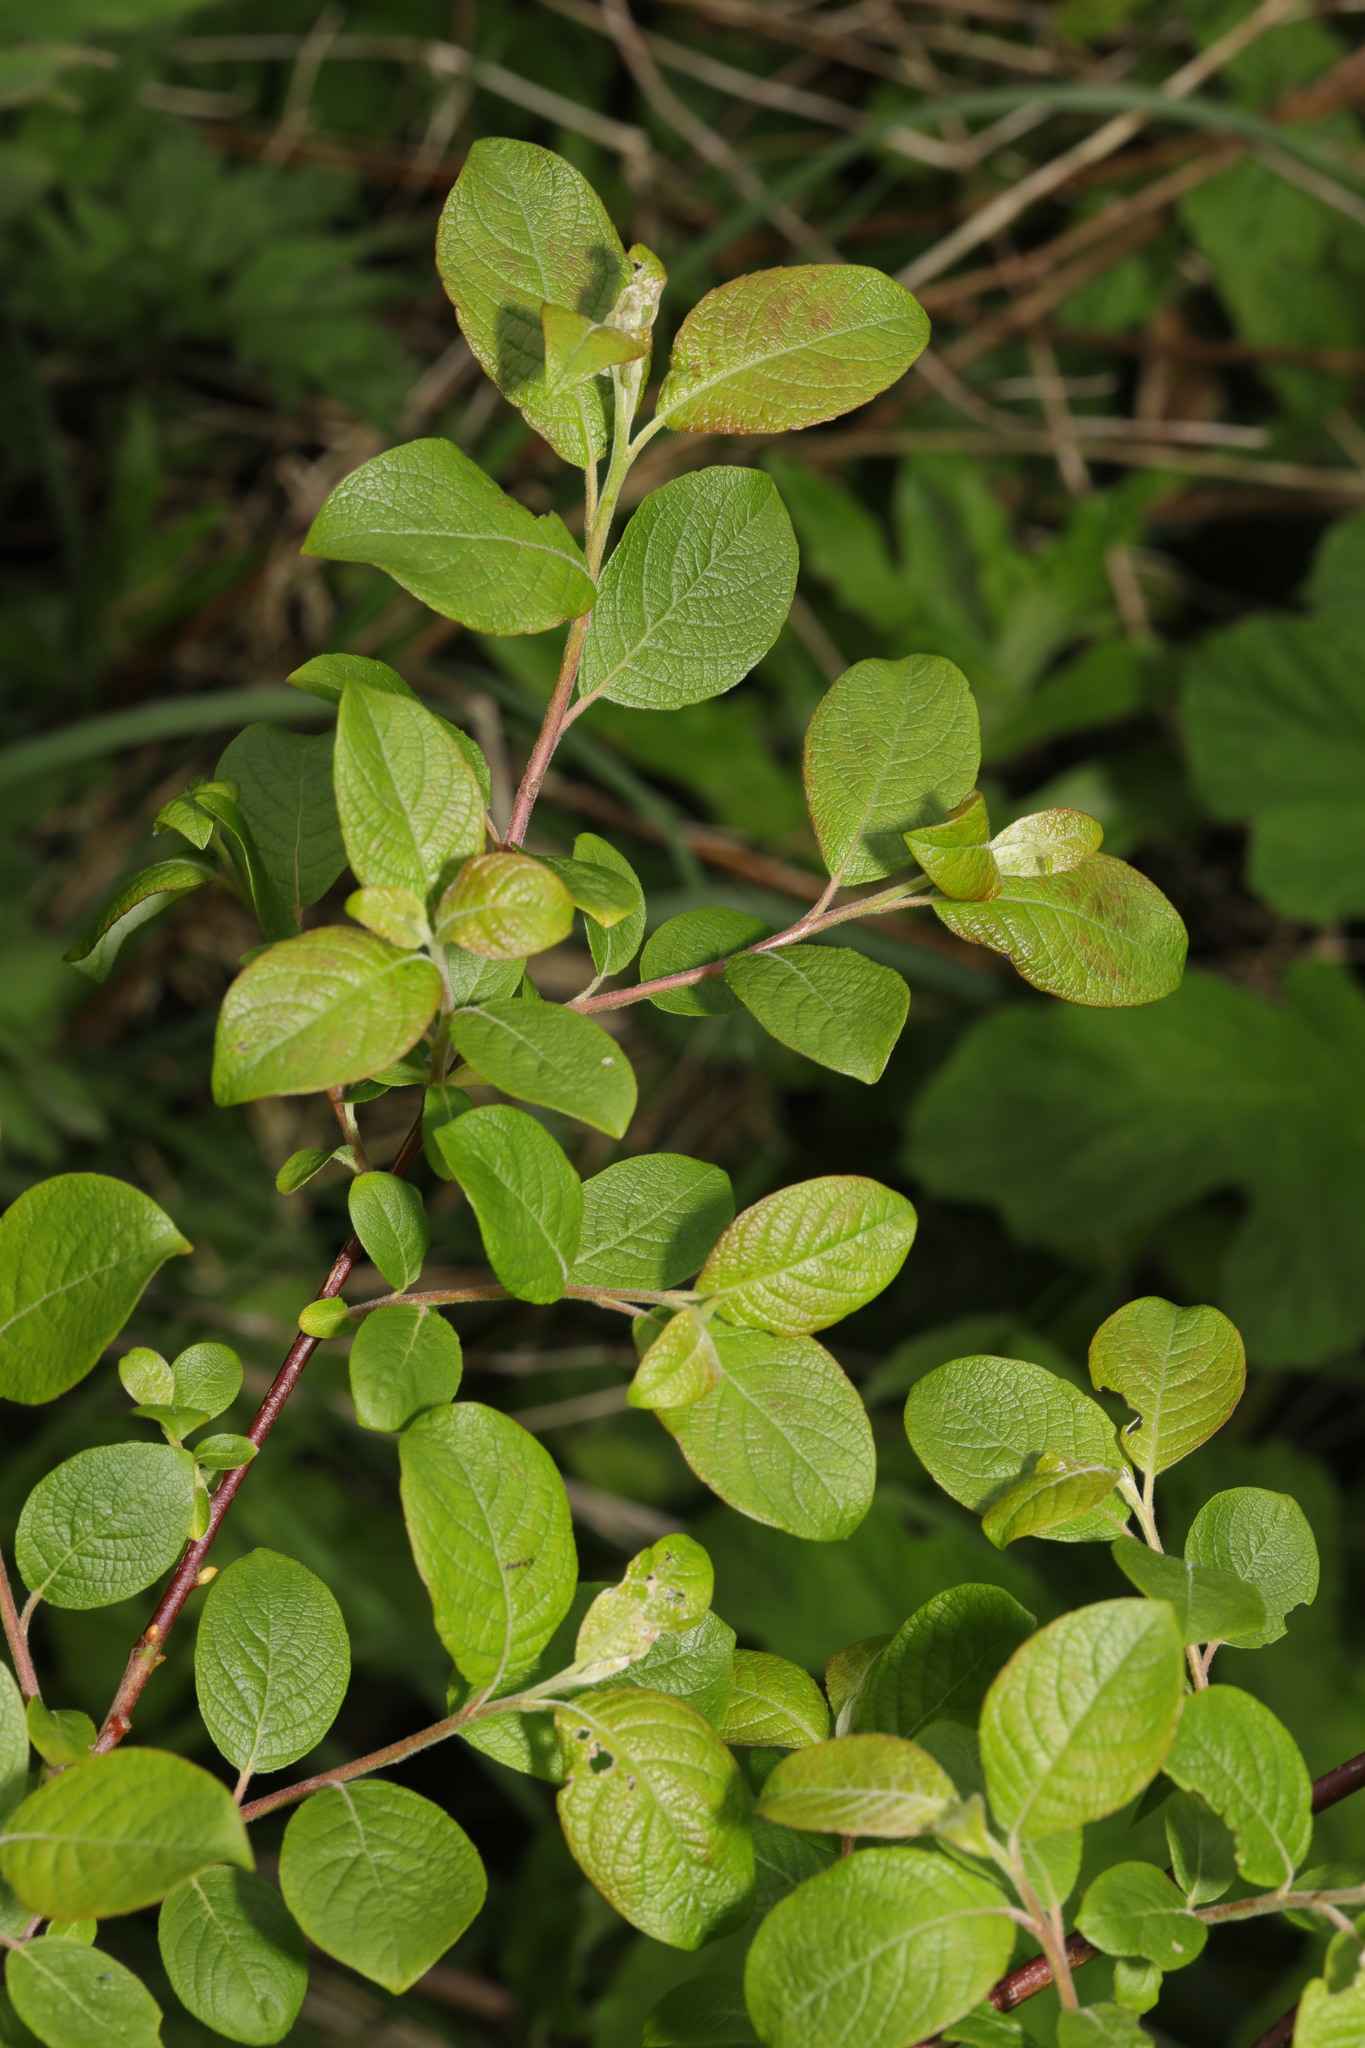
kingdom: Plantae
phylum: Tracheophyta
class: Magnoliopsida
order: Malpighiales
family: Salicaceae
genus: Salix
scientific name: Salix caprea
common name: Goat willow
